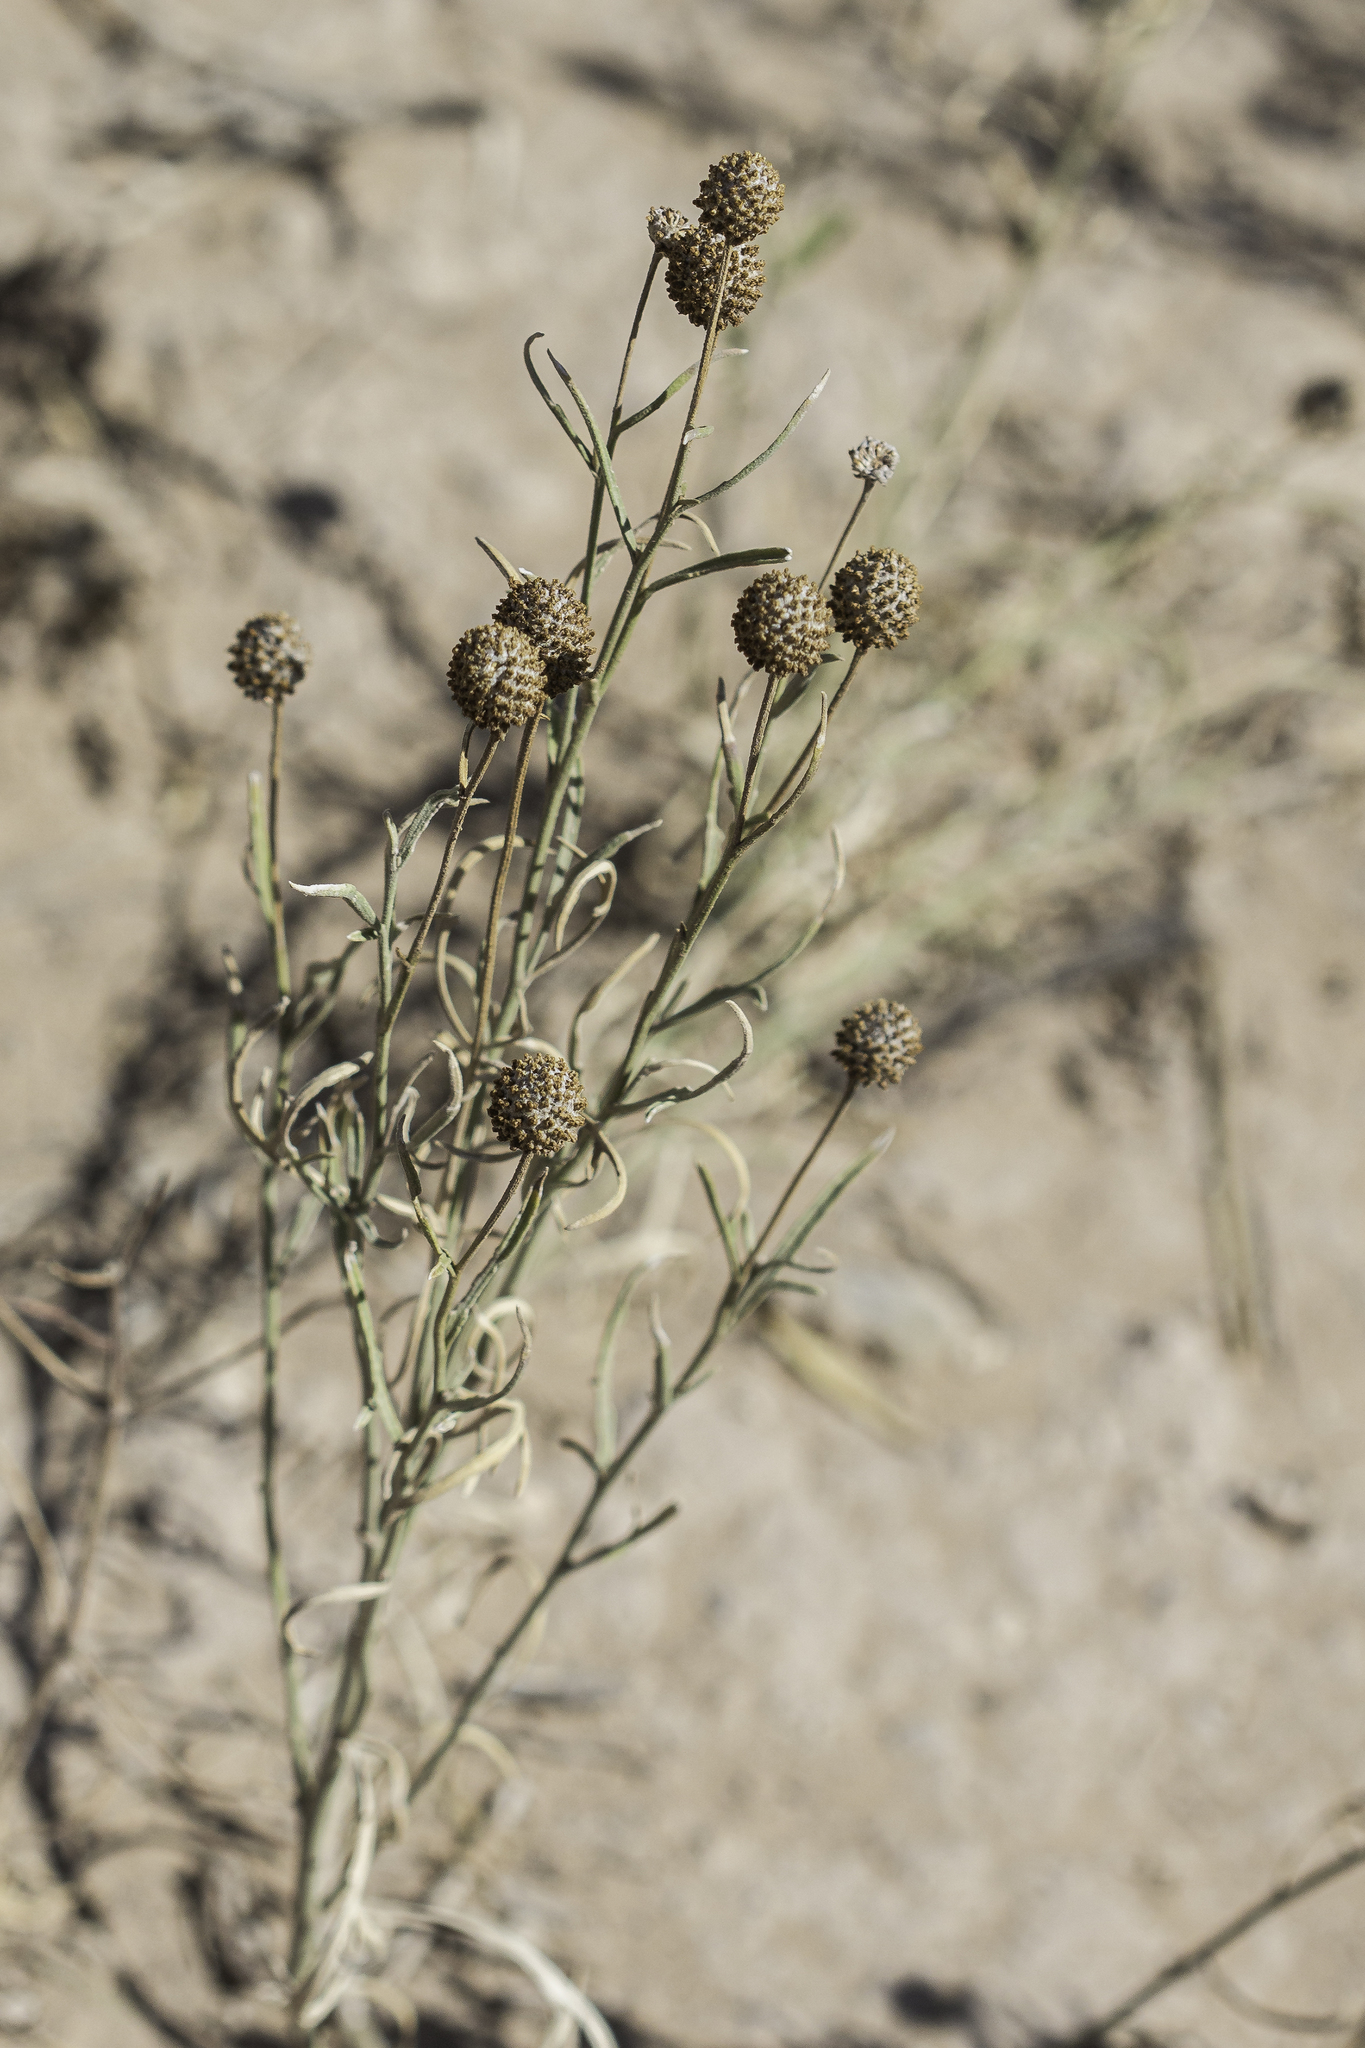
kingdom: Plantae
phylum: Tracheophyta
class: Magnoliopsida
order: Asterales
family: Asteraceae
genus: Ratibida
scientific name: Ratibida tagetes
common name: Green mexican-hat
